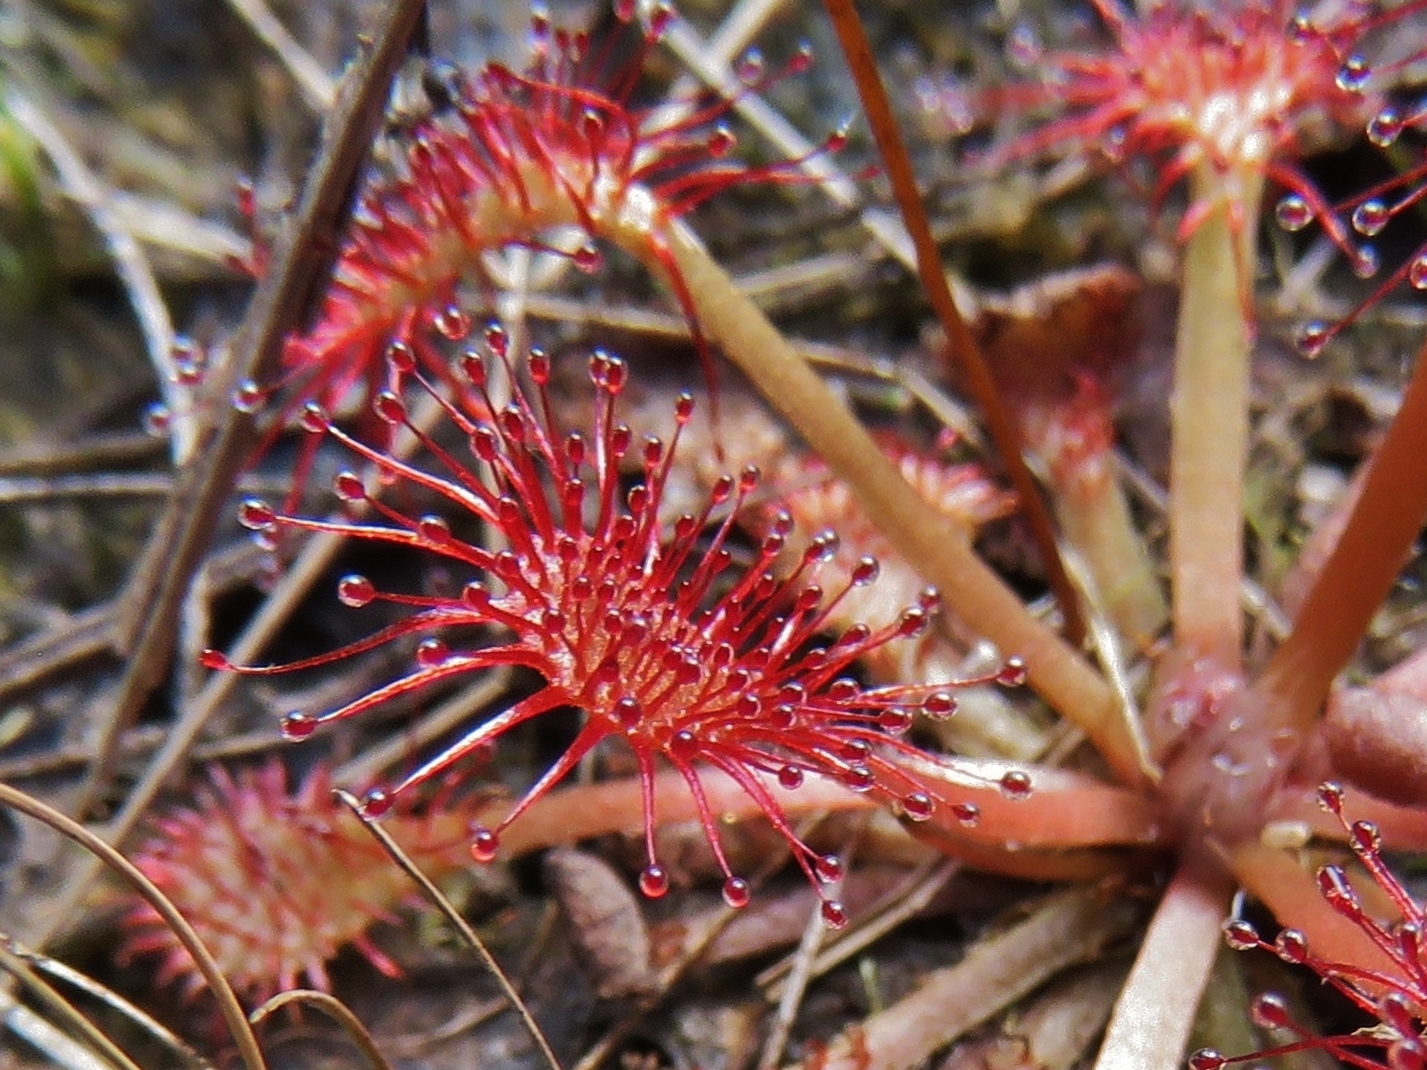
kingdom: Plantae
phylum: Tracheophyta
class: Magnoliopsida
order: Caryophyllales
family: Droseraceae
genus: Drosera
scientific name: Drosera capillaris
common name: Pink sundew
